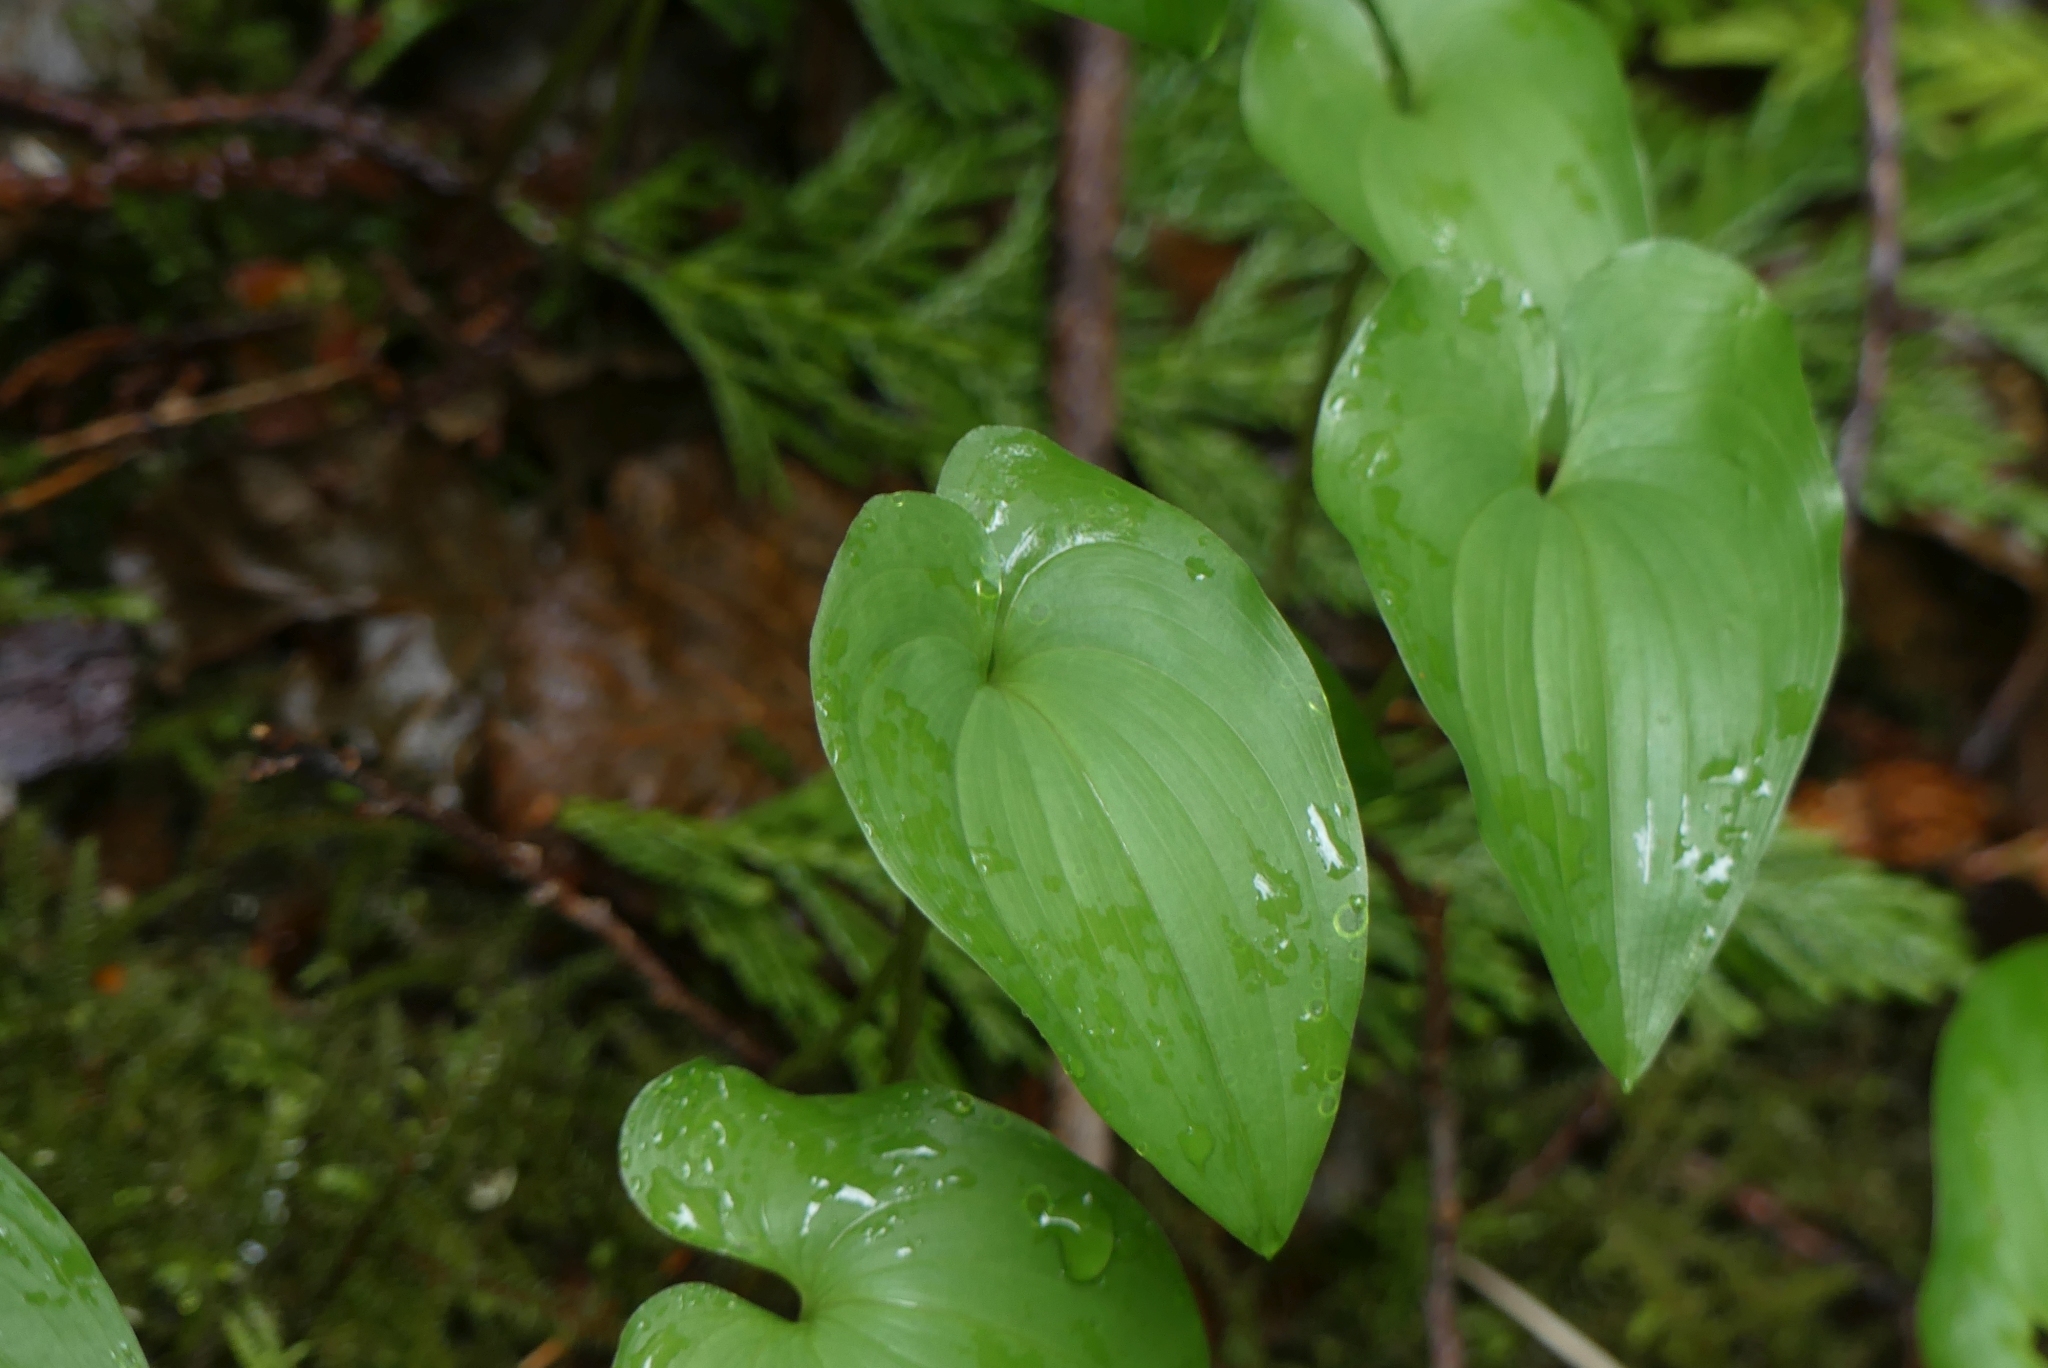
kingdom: Plantae
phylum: Tracheophyta
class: Liliopsida
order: Asparagales
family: Asparagaceae
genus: Maianthemum
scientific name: Maianthemum dilatatum
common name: False lily-of-the-valley
